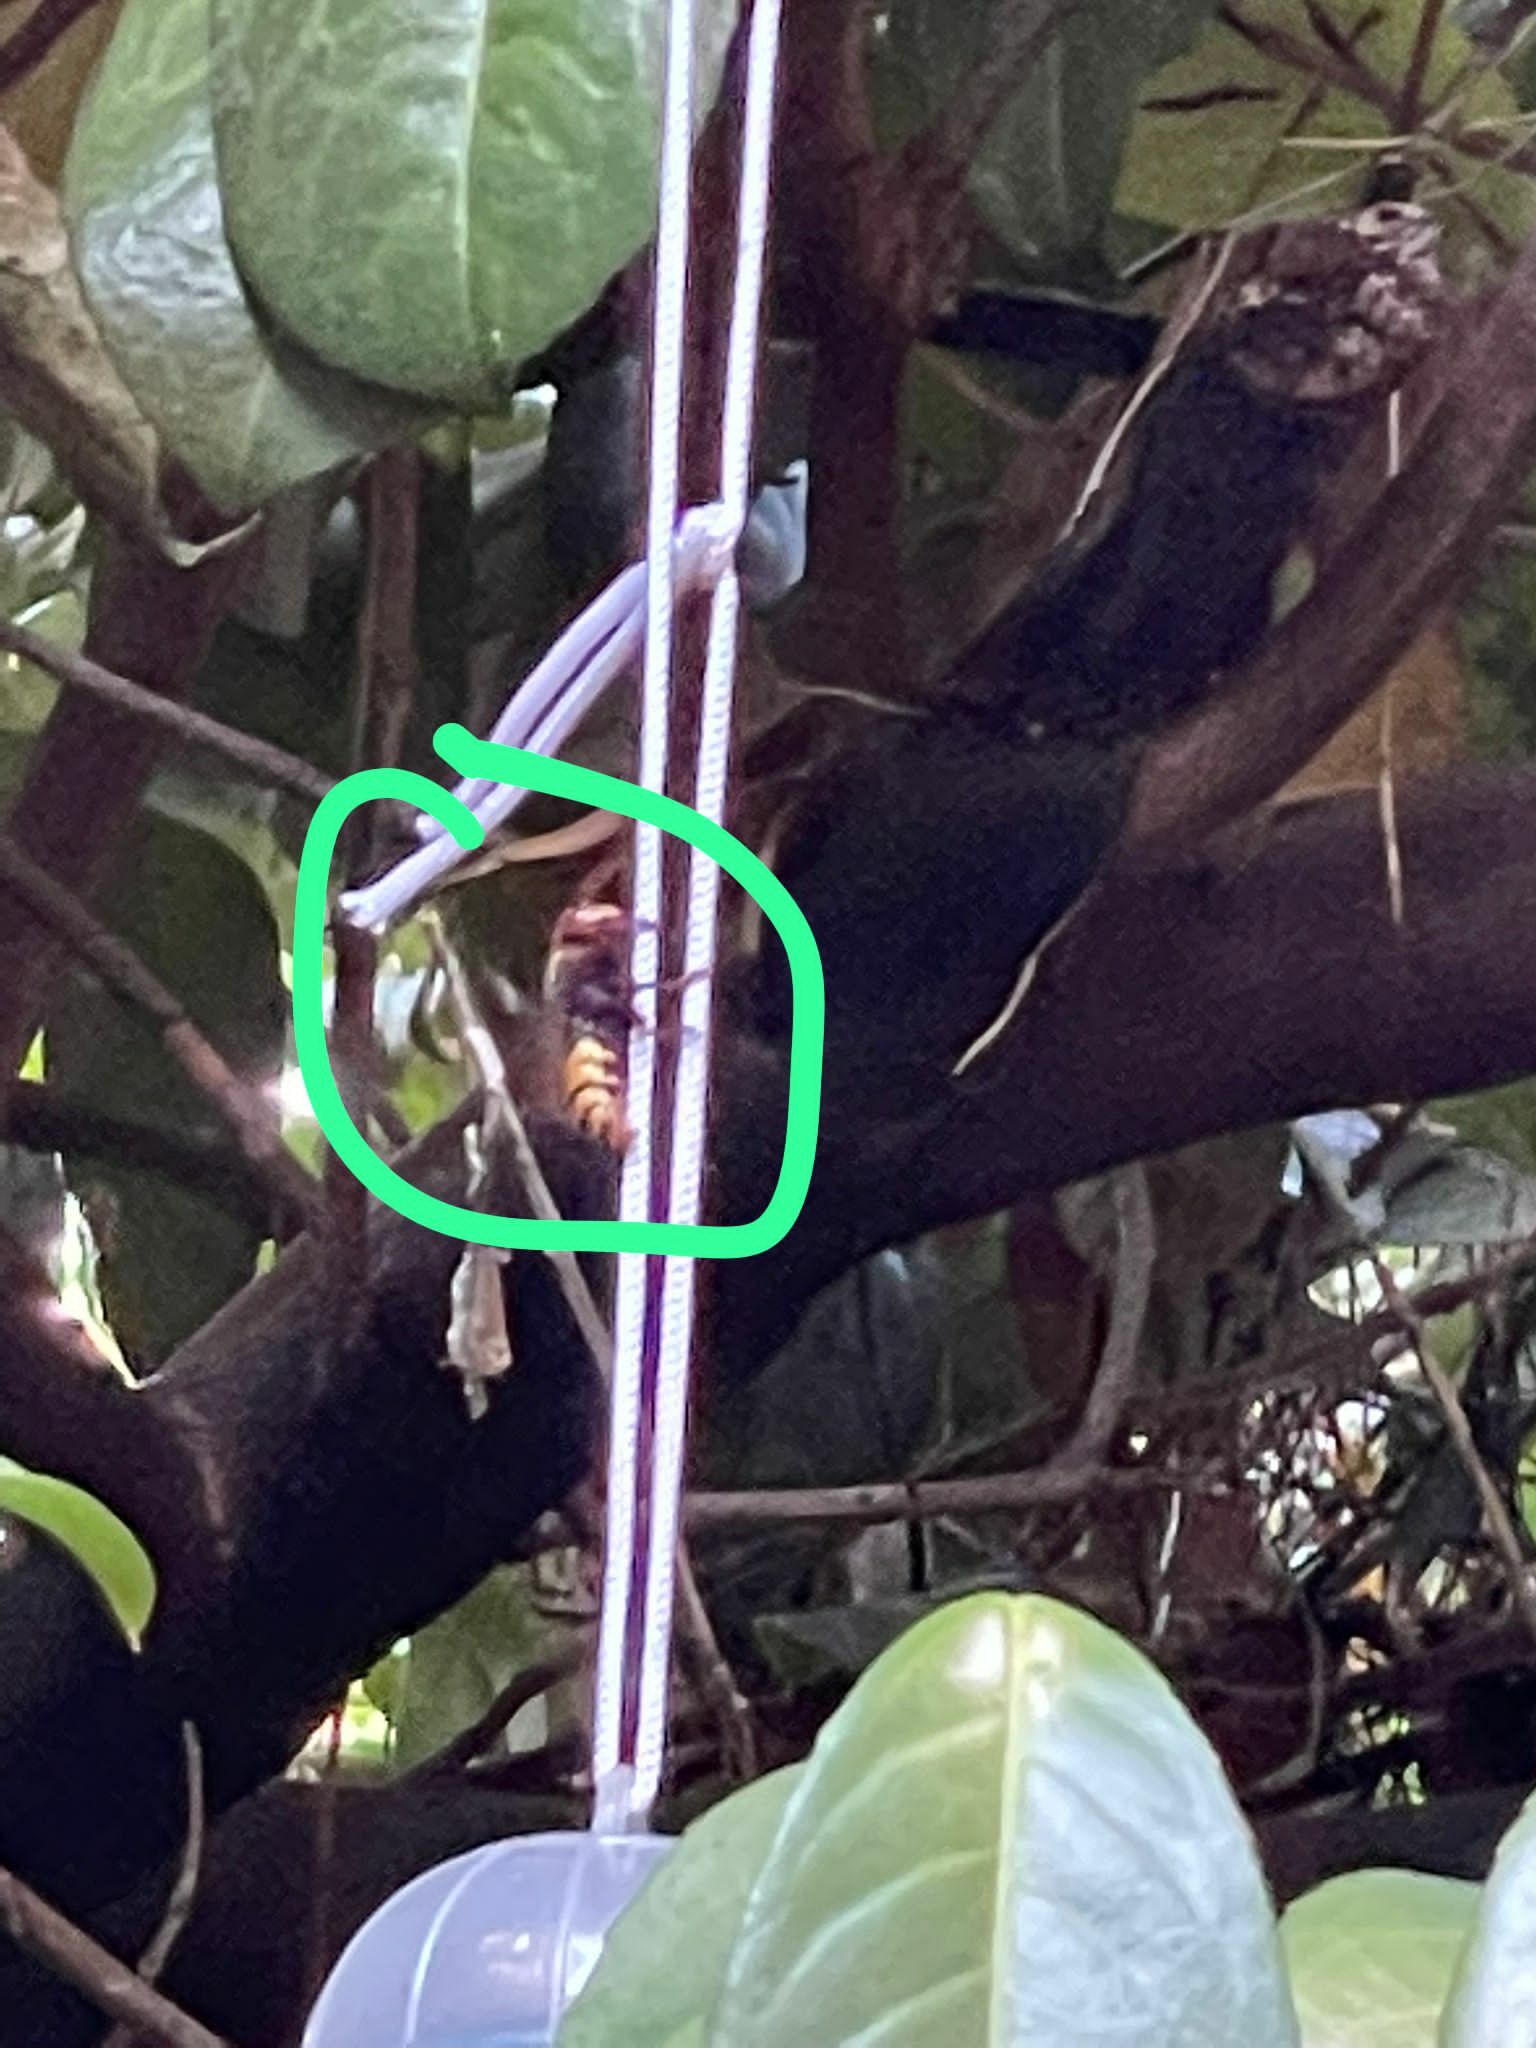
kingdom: Animalia
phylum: Arthropoda
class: Insecta
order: Hymenoptera
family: Vespidae
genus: Vespa
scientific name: Vespa crabro
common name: Hornet
